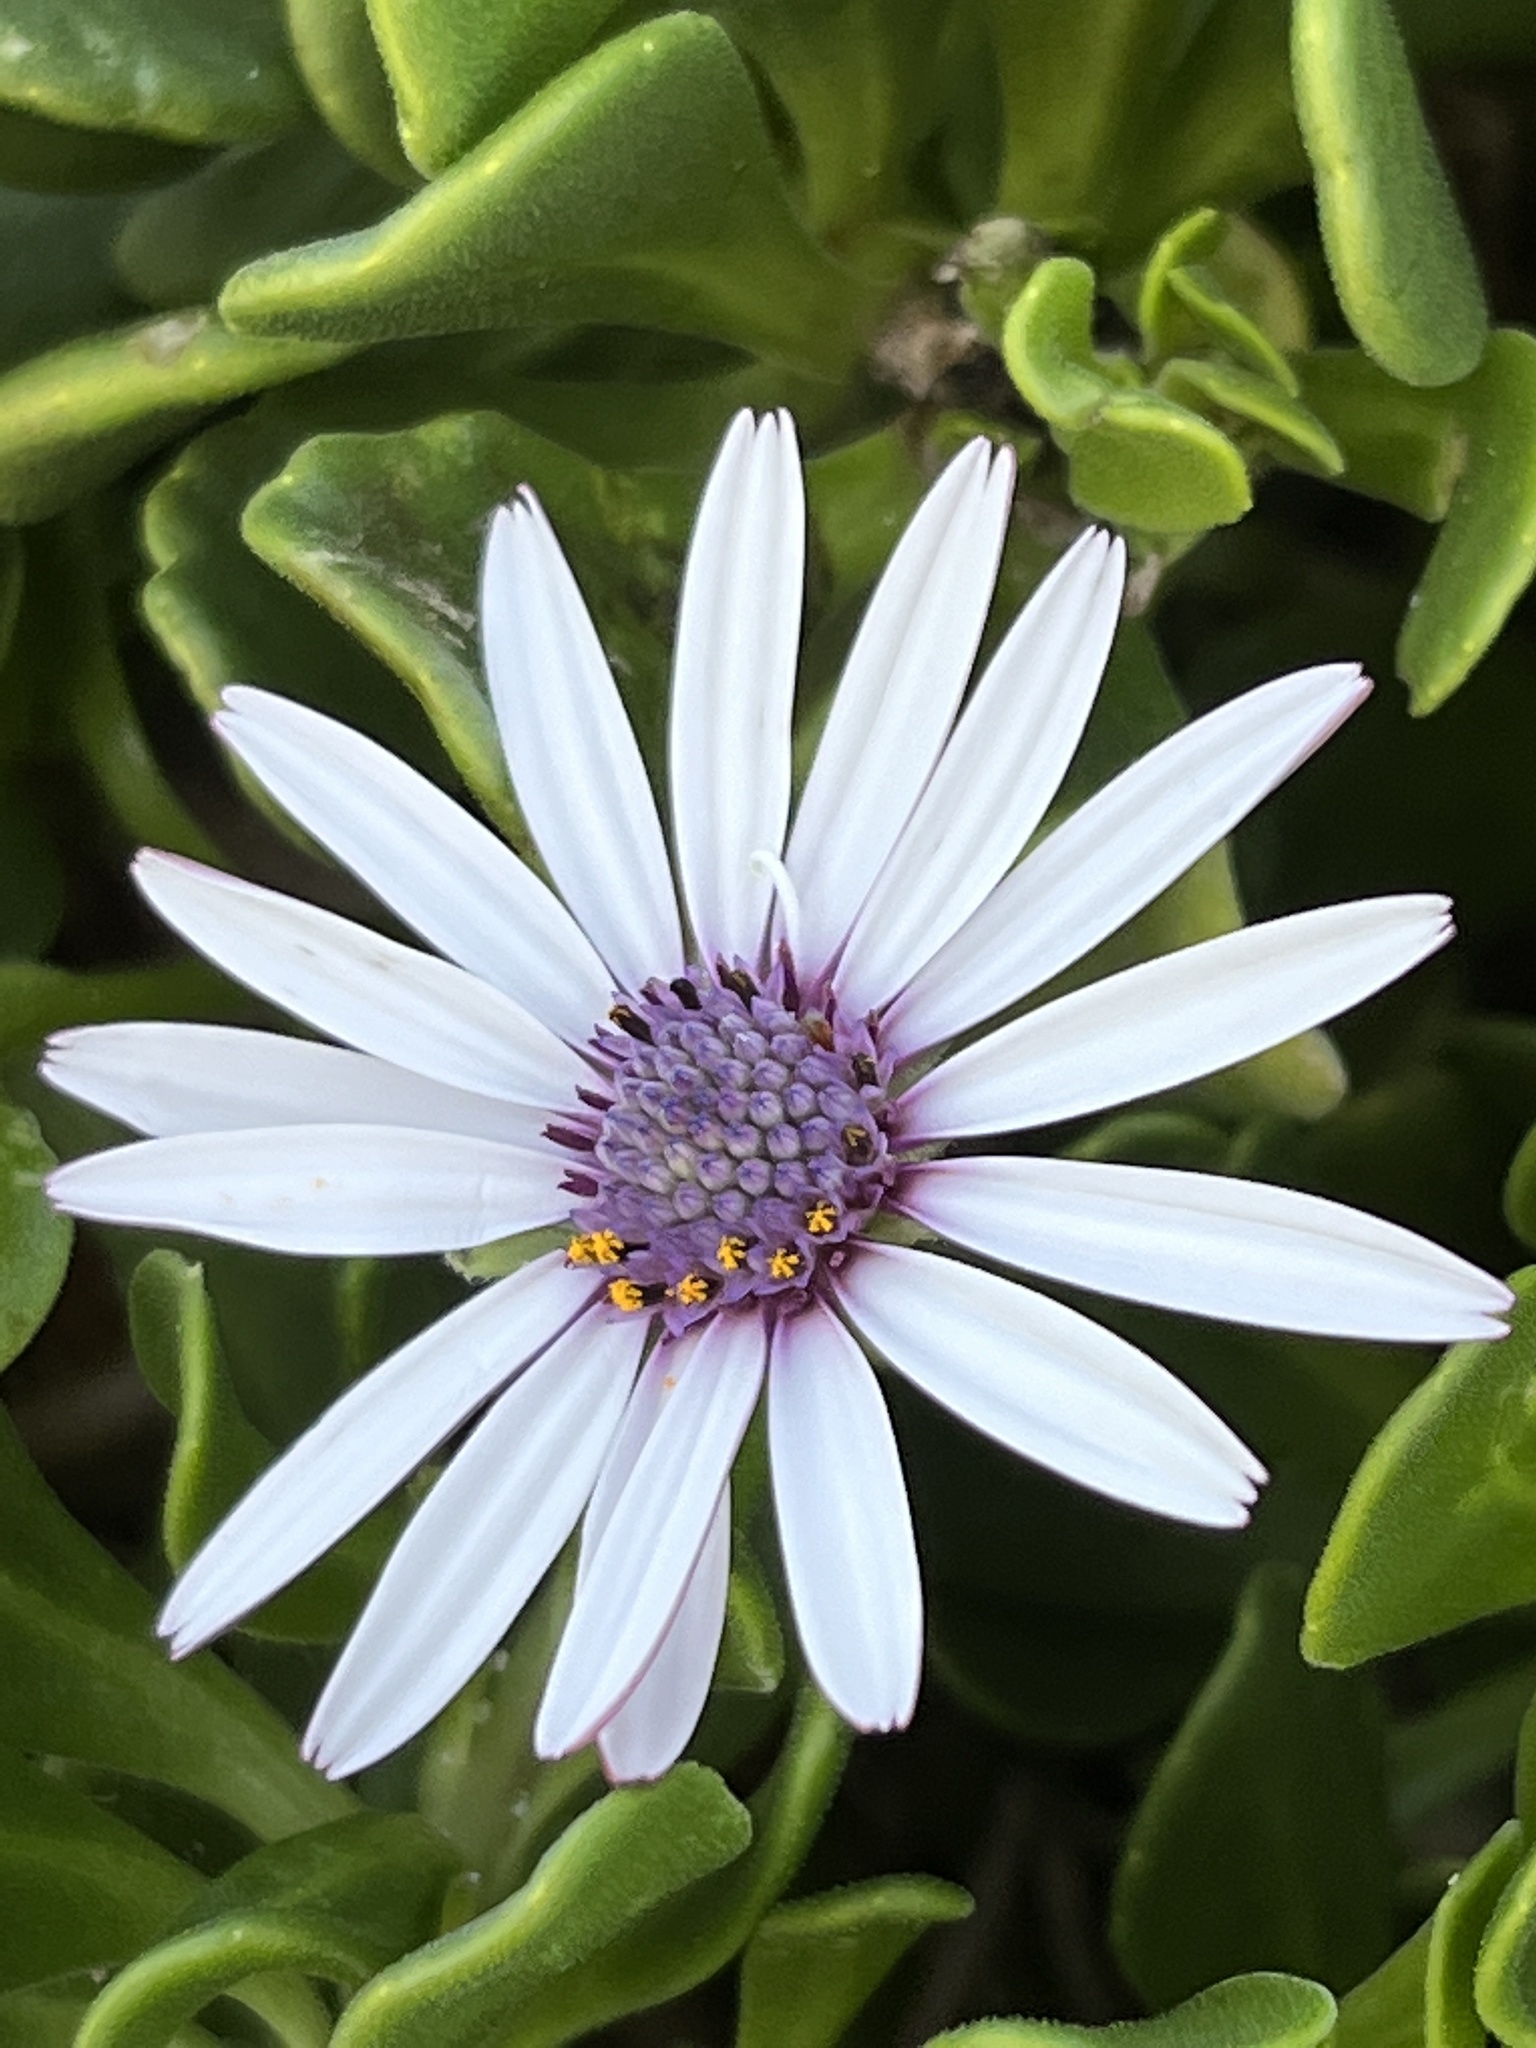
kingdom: Plantae
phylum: Tracheophyta
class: Magnoliopsida
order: Asterales
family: Asteraceae
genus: Dimorphotheca
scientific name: Dimorphotheca fruticosa
